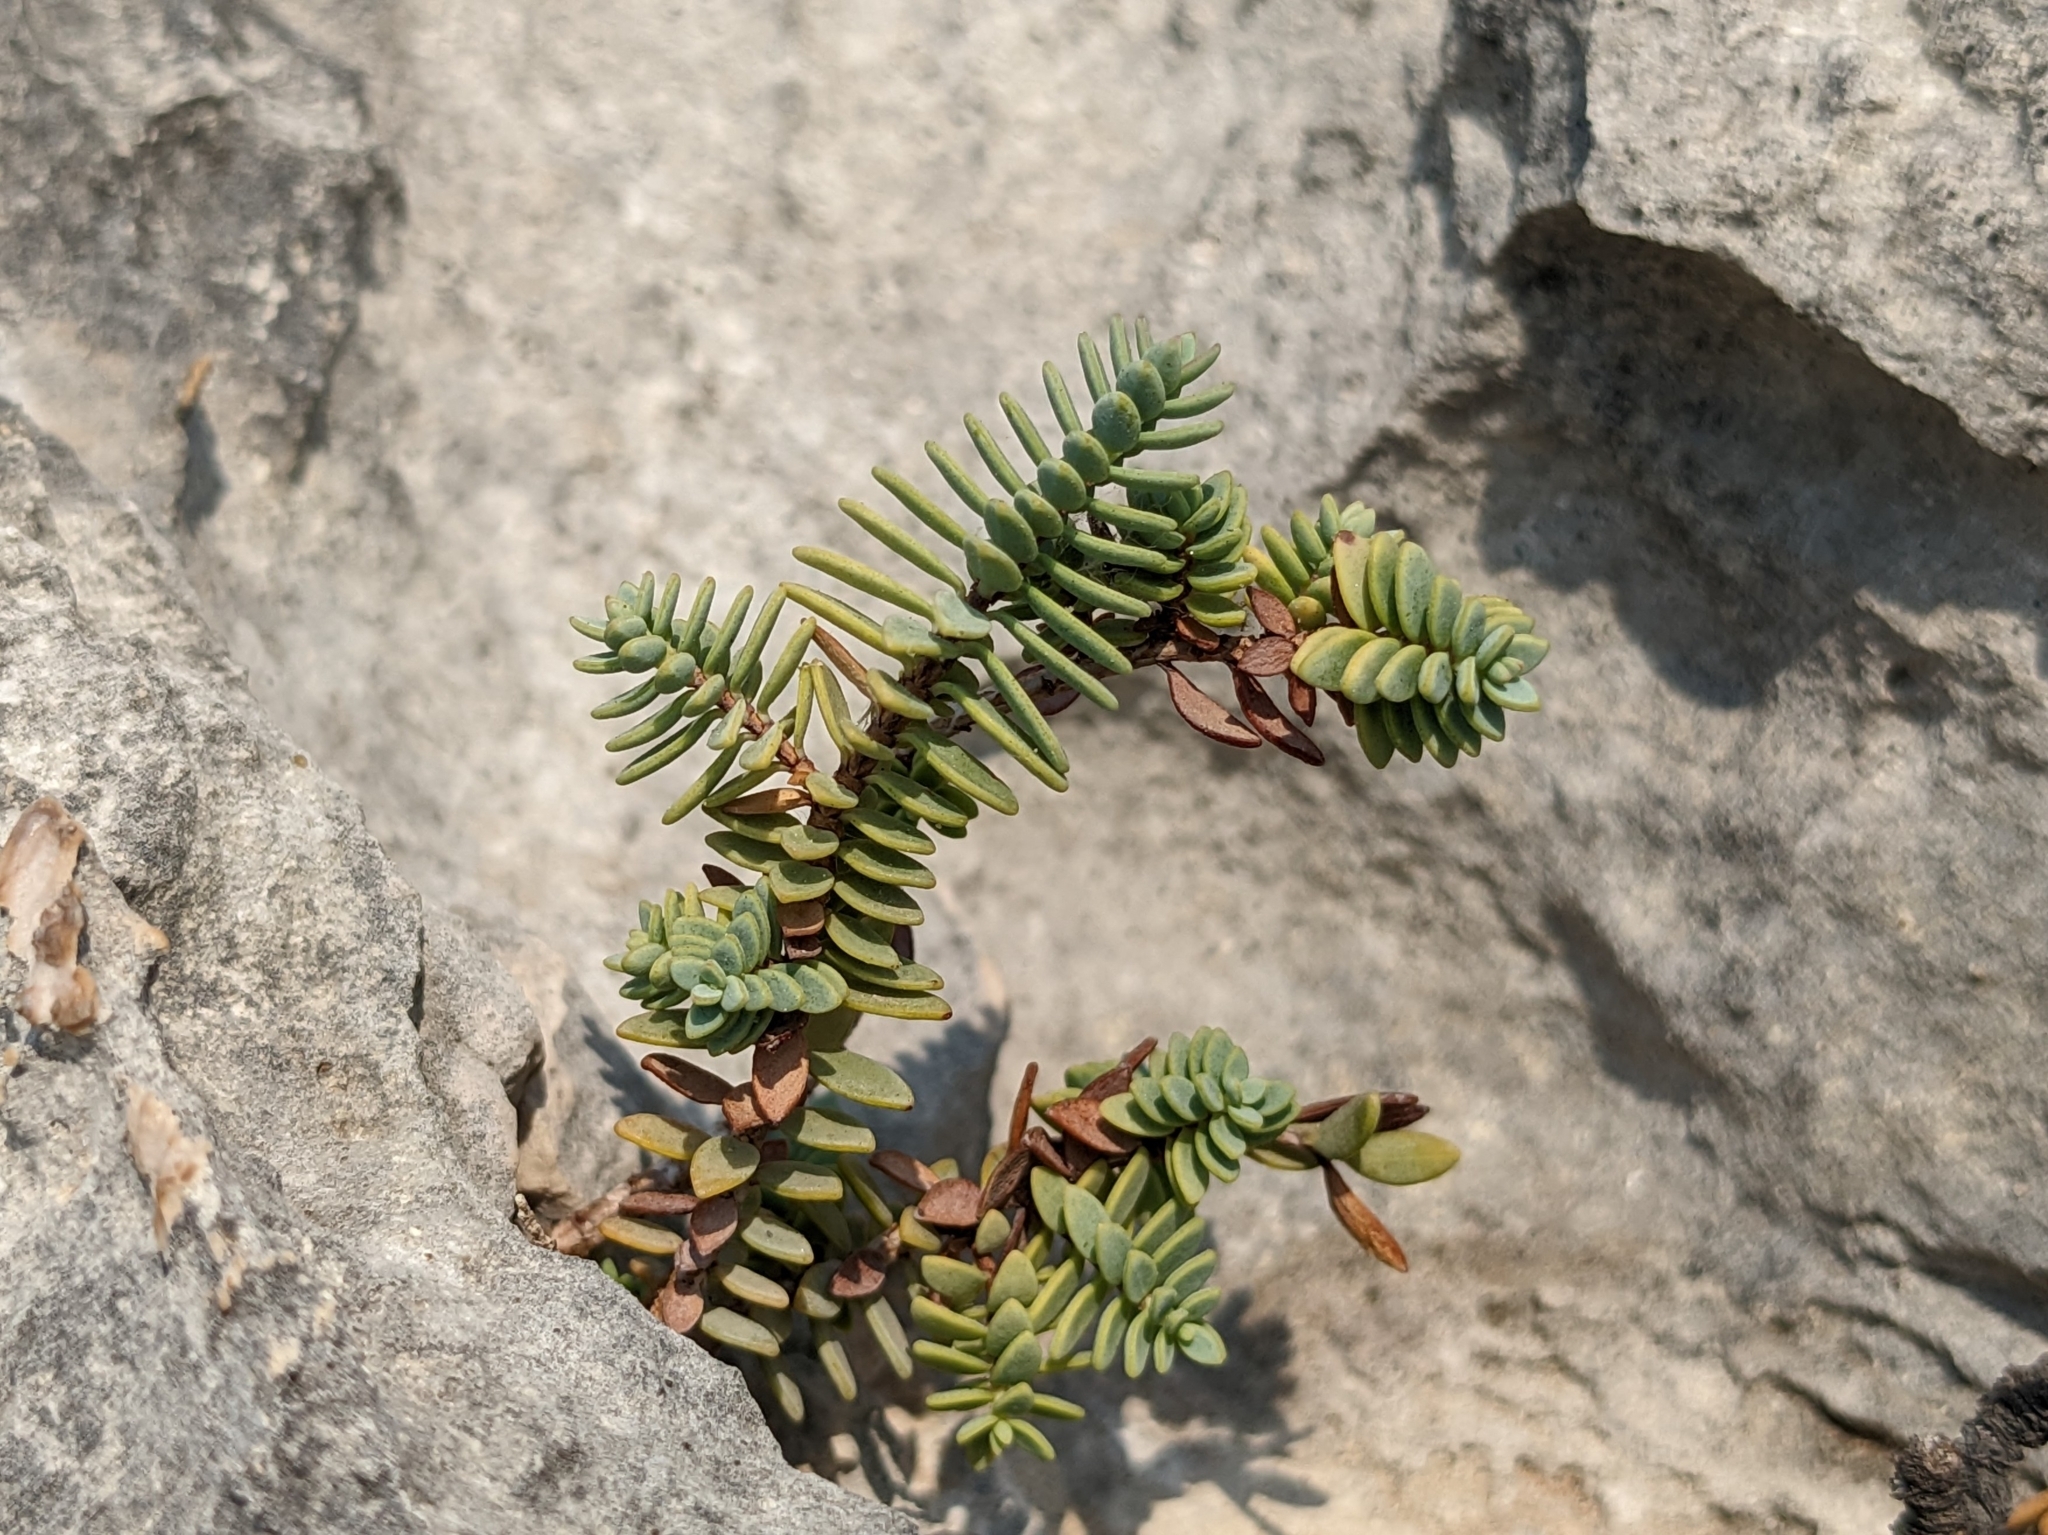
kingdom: Plantae
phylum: Tracheophyta
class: Magnoliopsida
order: Malpighiales
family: Hypericaceae
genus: Hypericum
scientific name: Hypericum aegypticum
